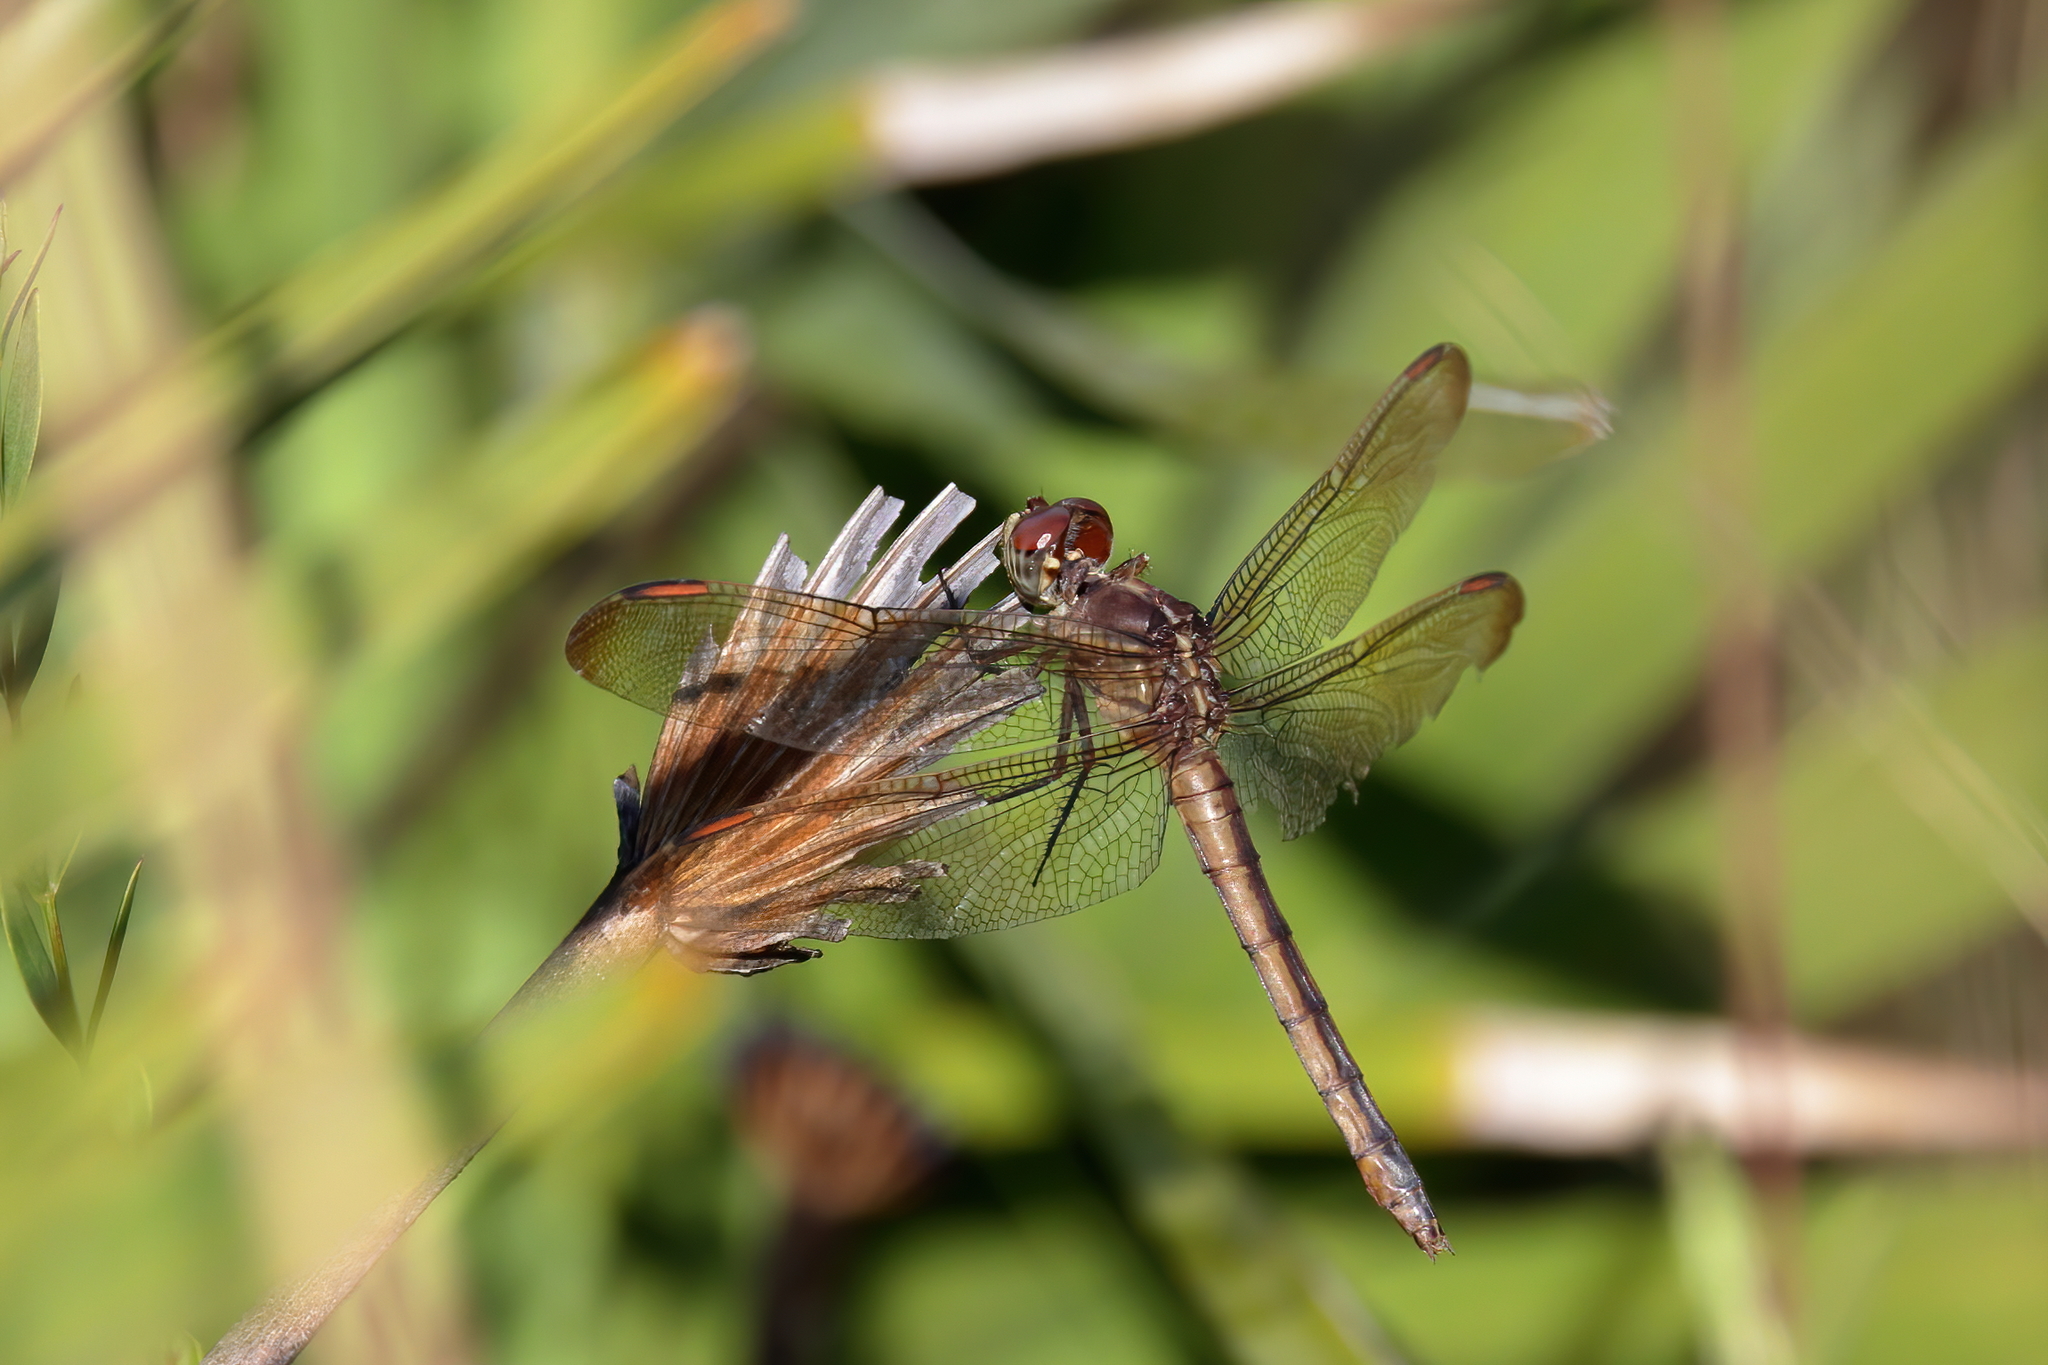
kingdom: Animalia
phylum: Arthropoda
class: Insecta
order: Odonata
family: Libellulidae
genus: Libellula
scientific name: Libellula auripennis
